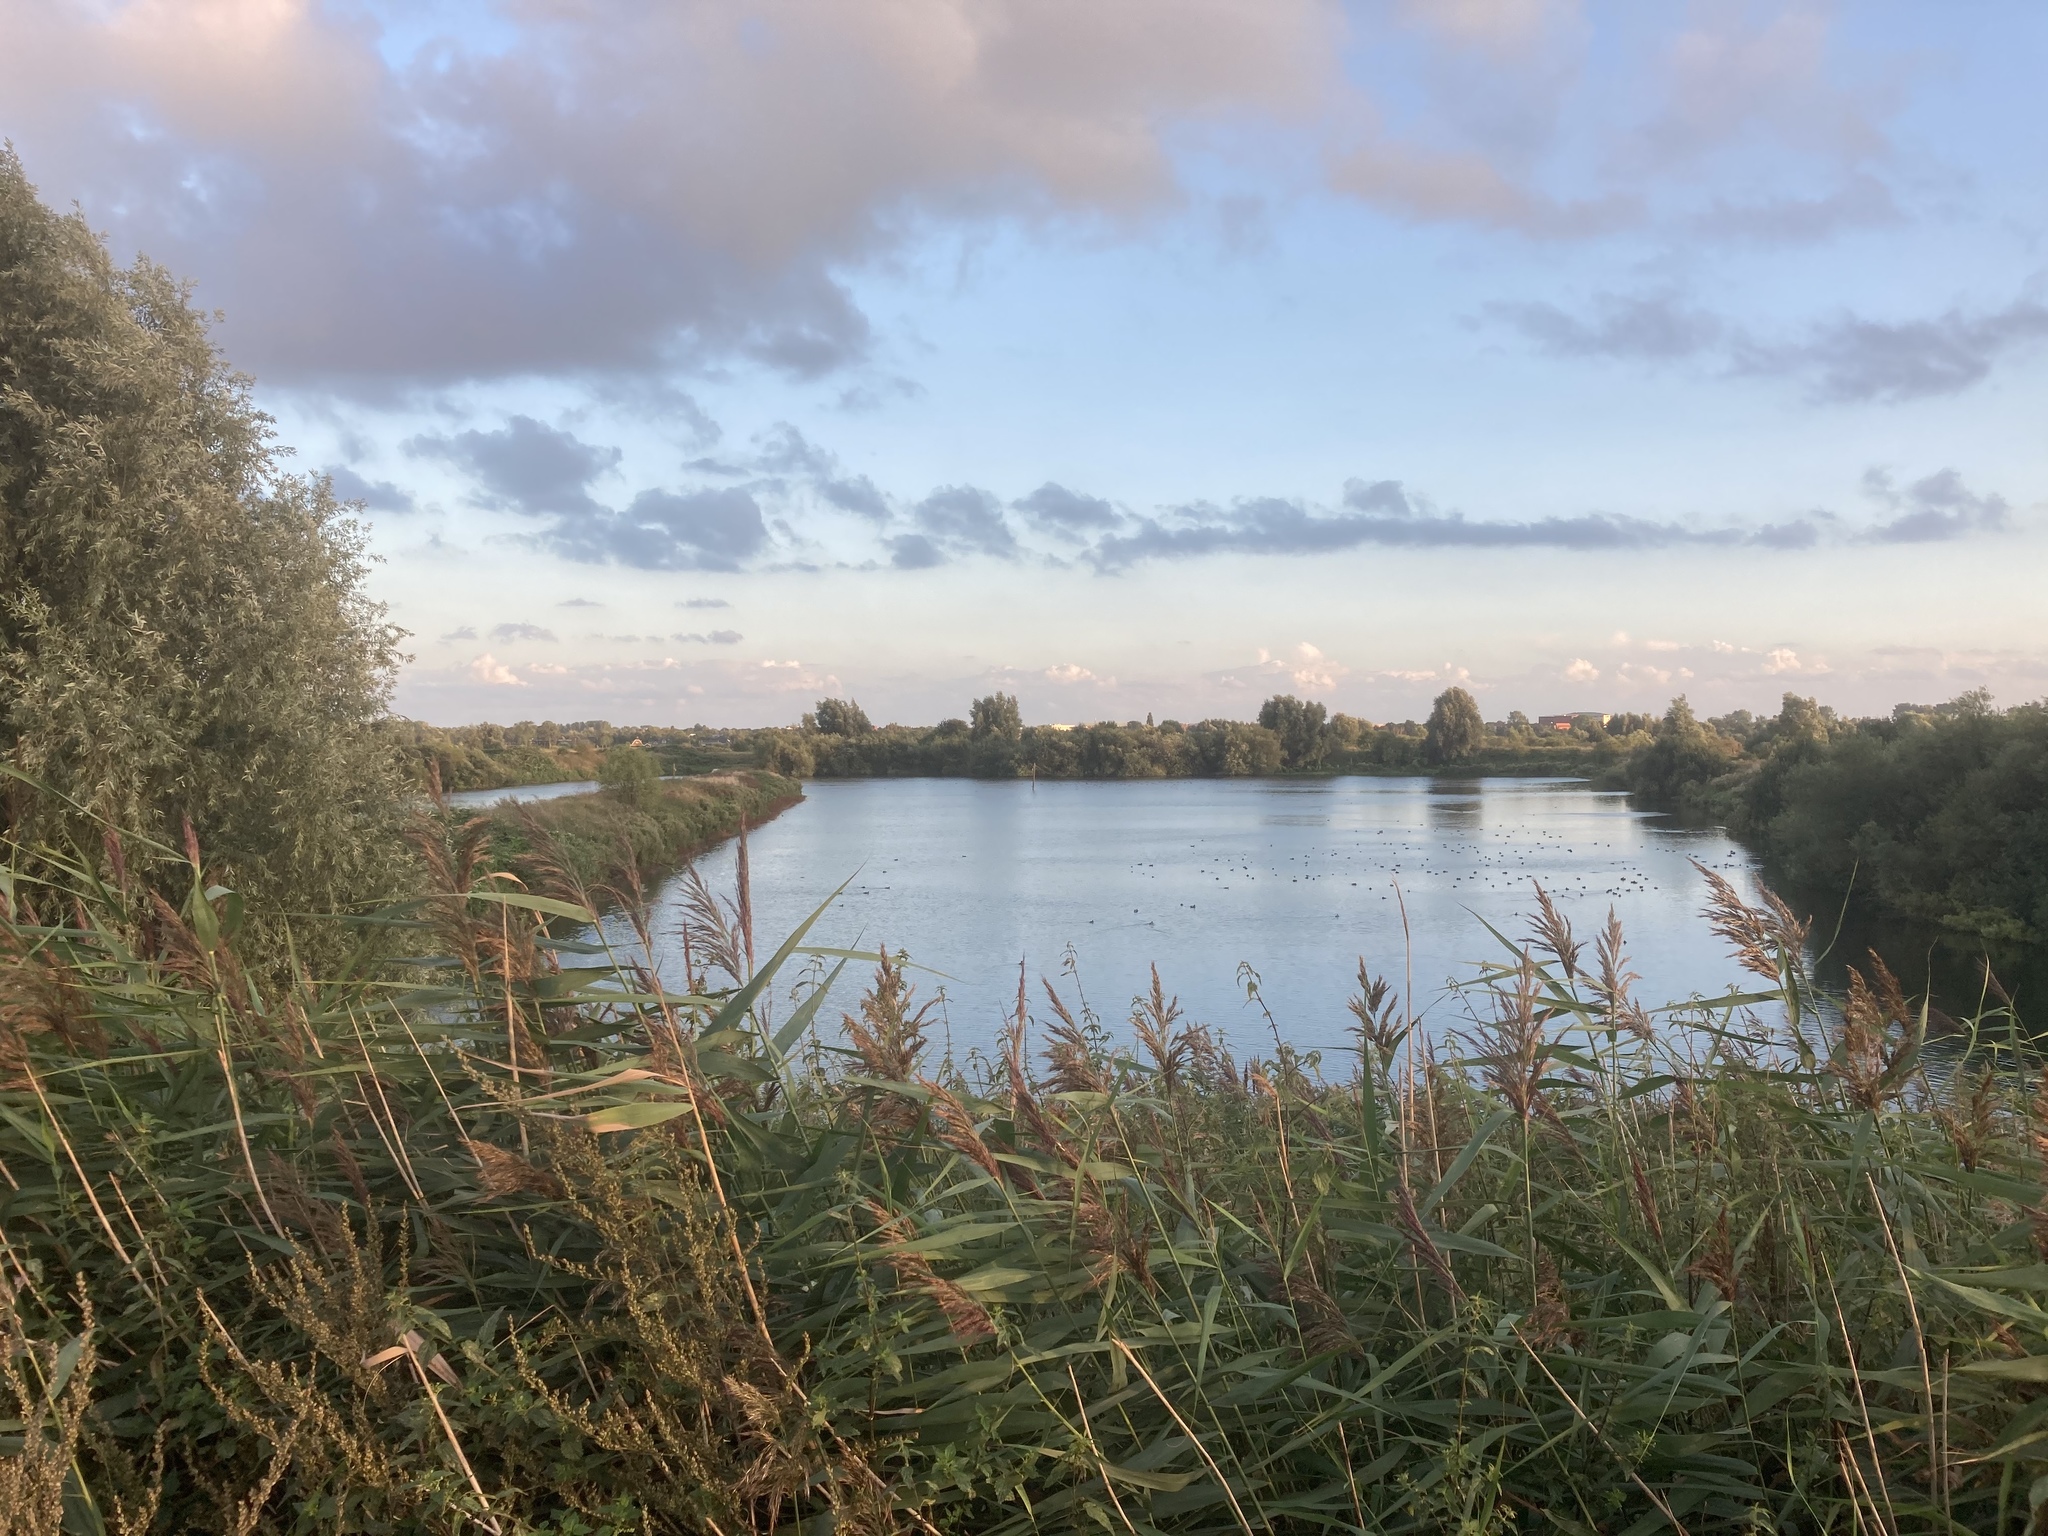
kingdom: Plantae
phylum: Tracheophyta
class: Liliopsida
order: Poales
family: Poaceae
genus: Phragmites
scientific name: Phragmites australis
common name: Common reed
